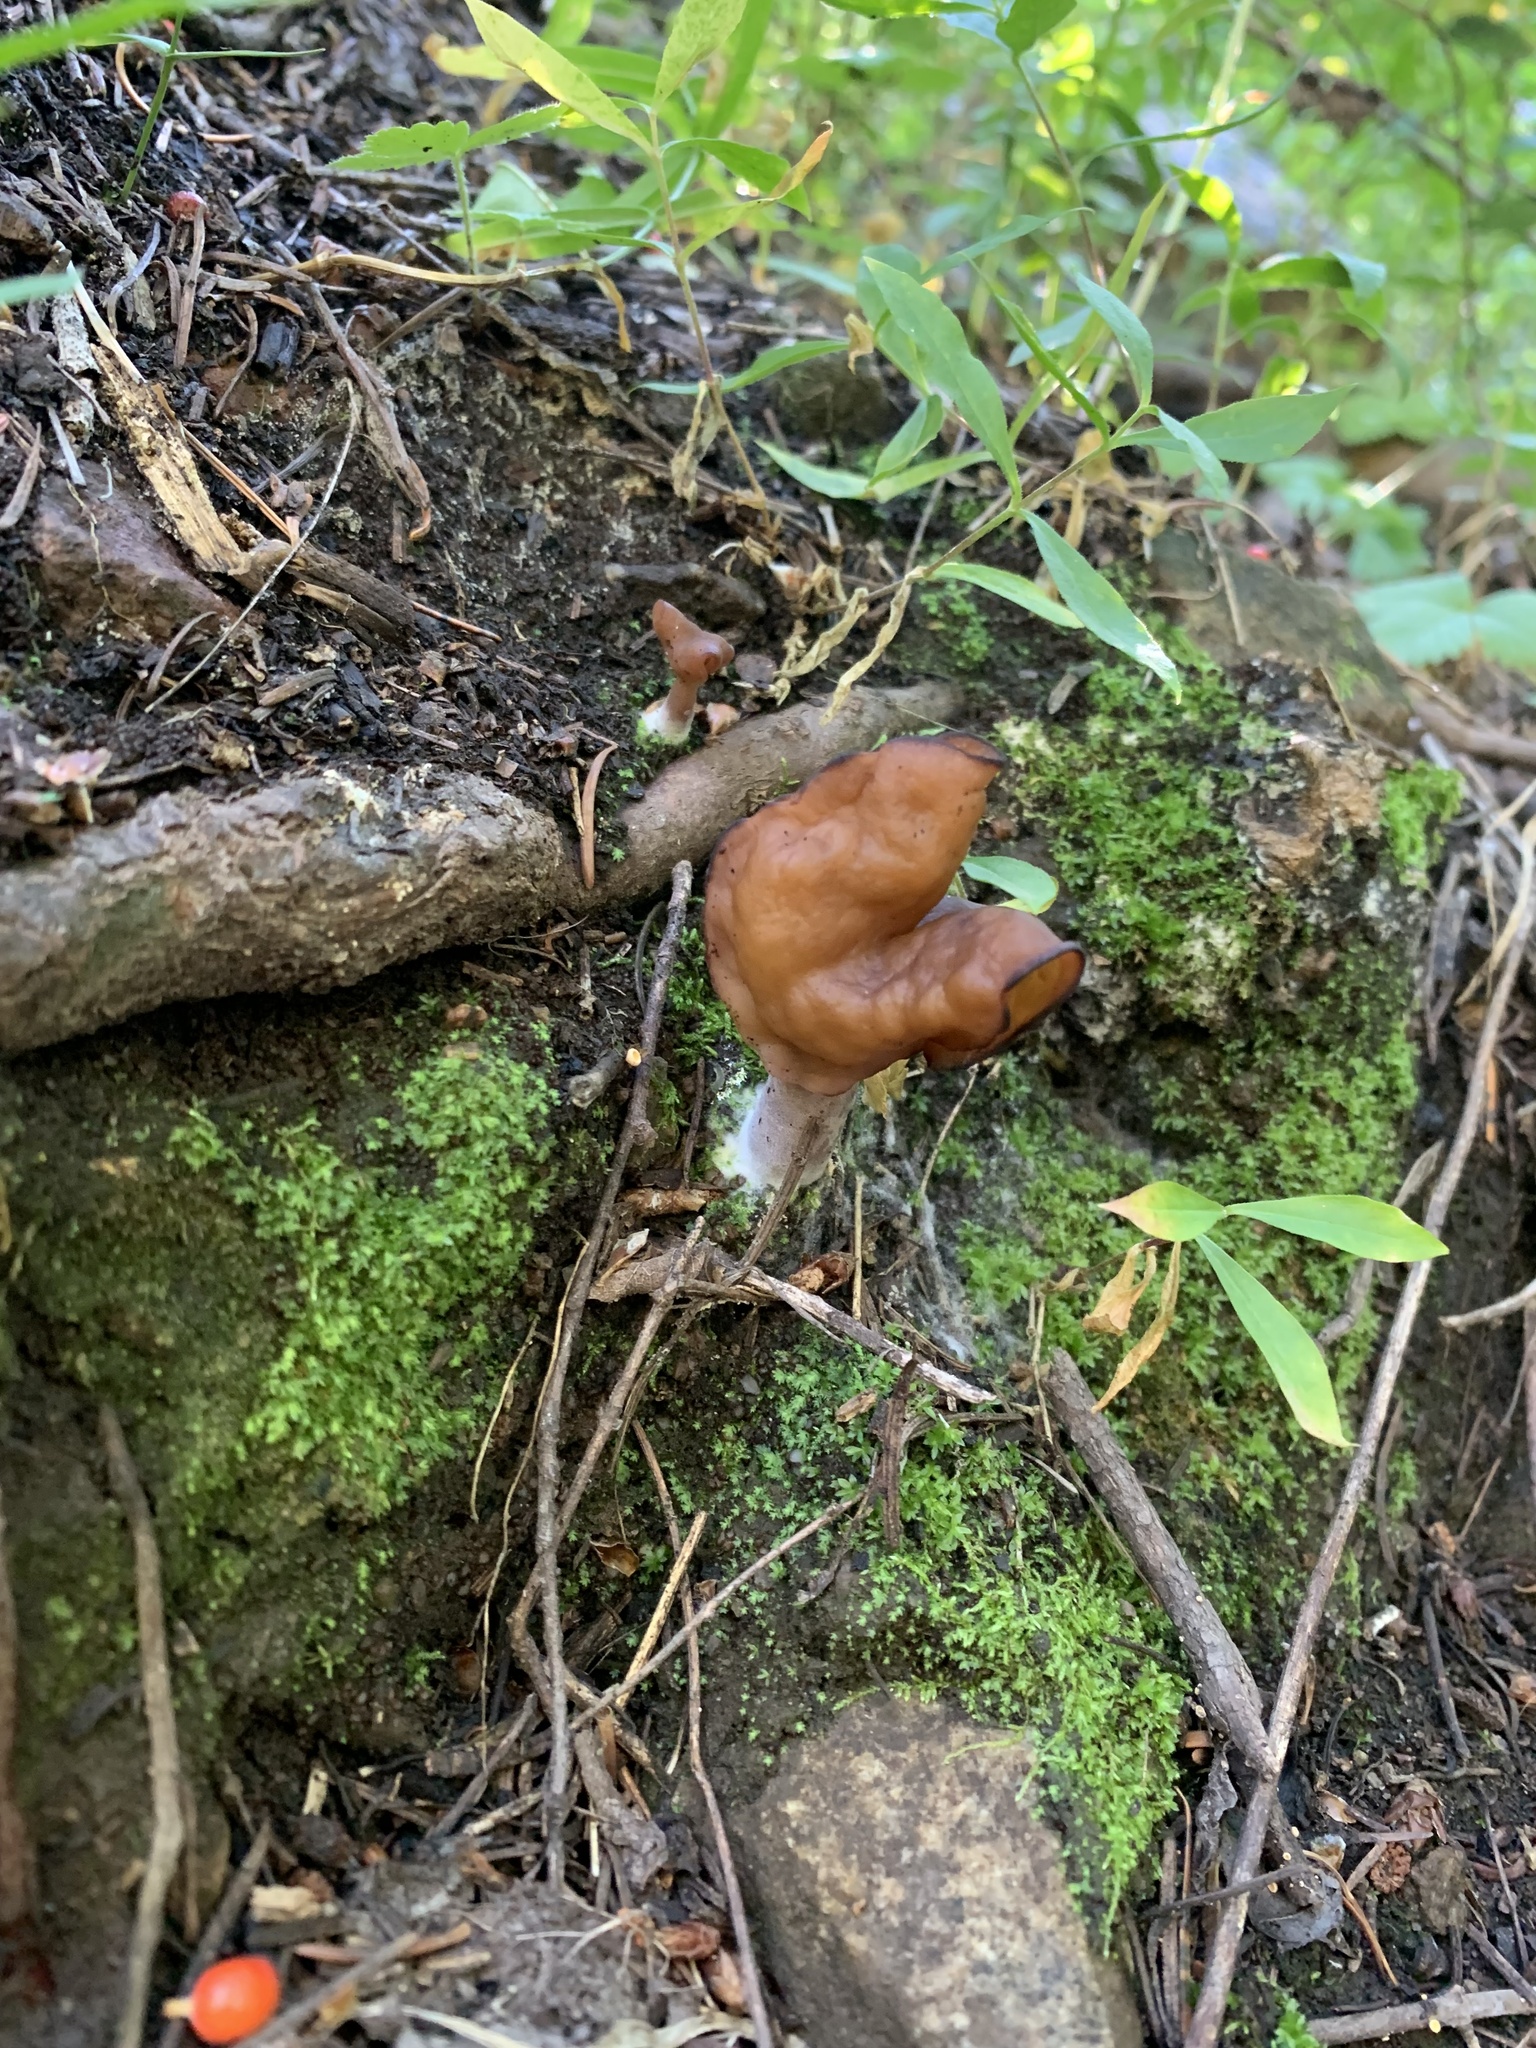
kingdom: Fungi
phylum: Ascomycota
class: Pezizomycetes
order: Pezizales
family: Discinaceae
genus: Gyromitra
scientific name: Gyromitra infula
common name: Pouched false morel
